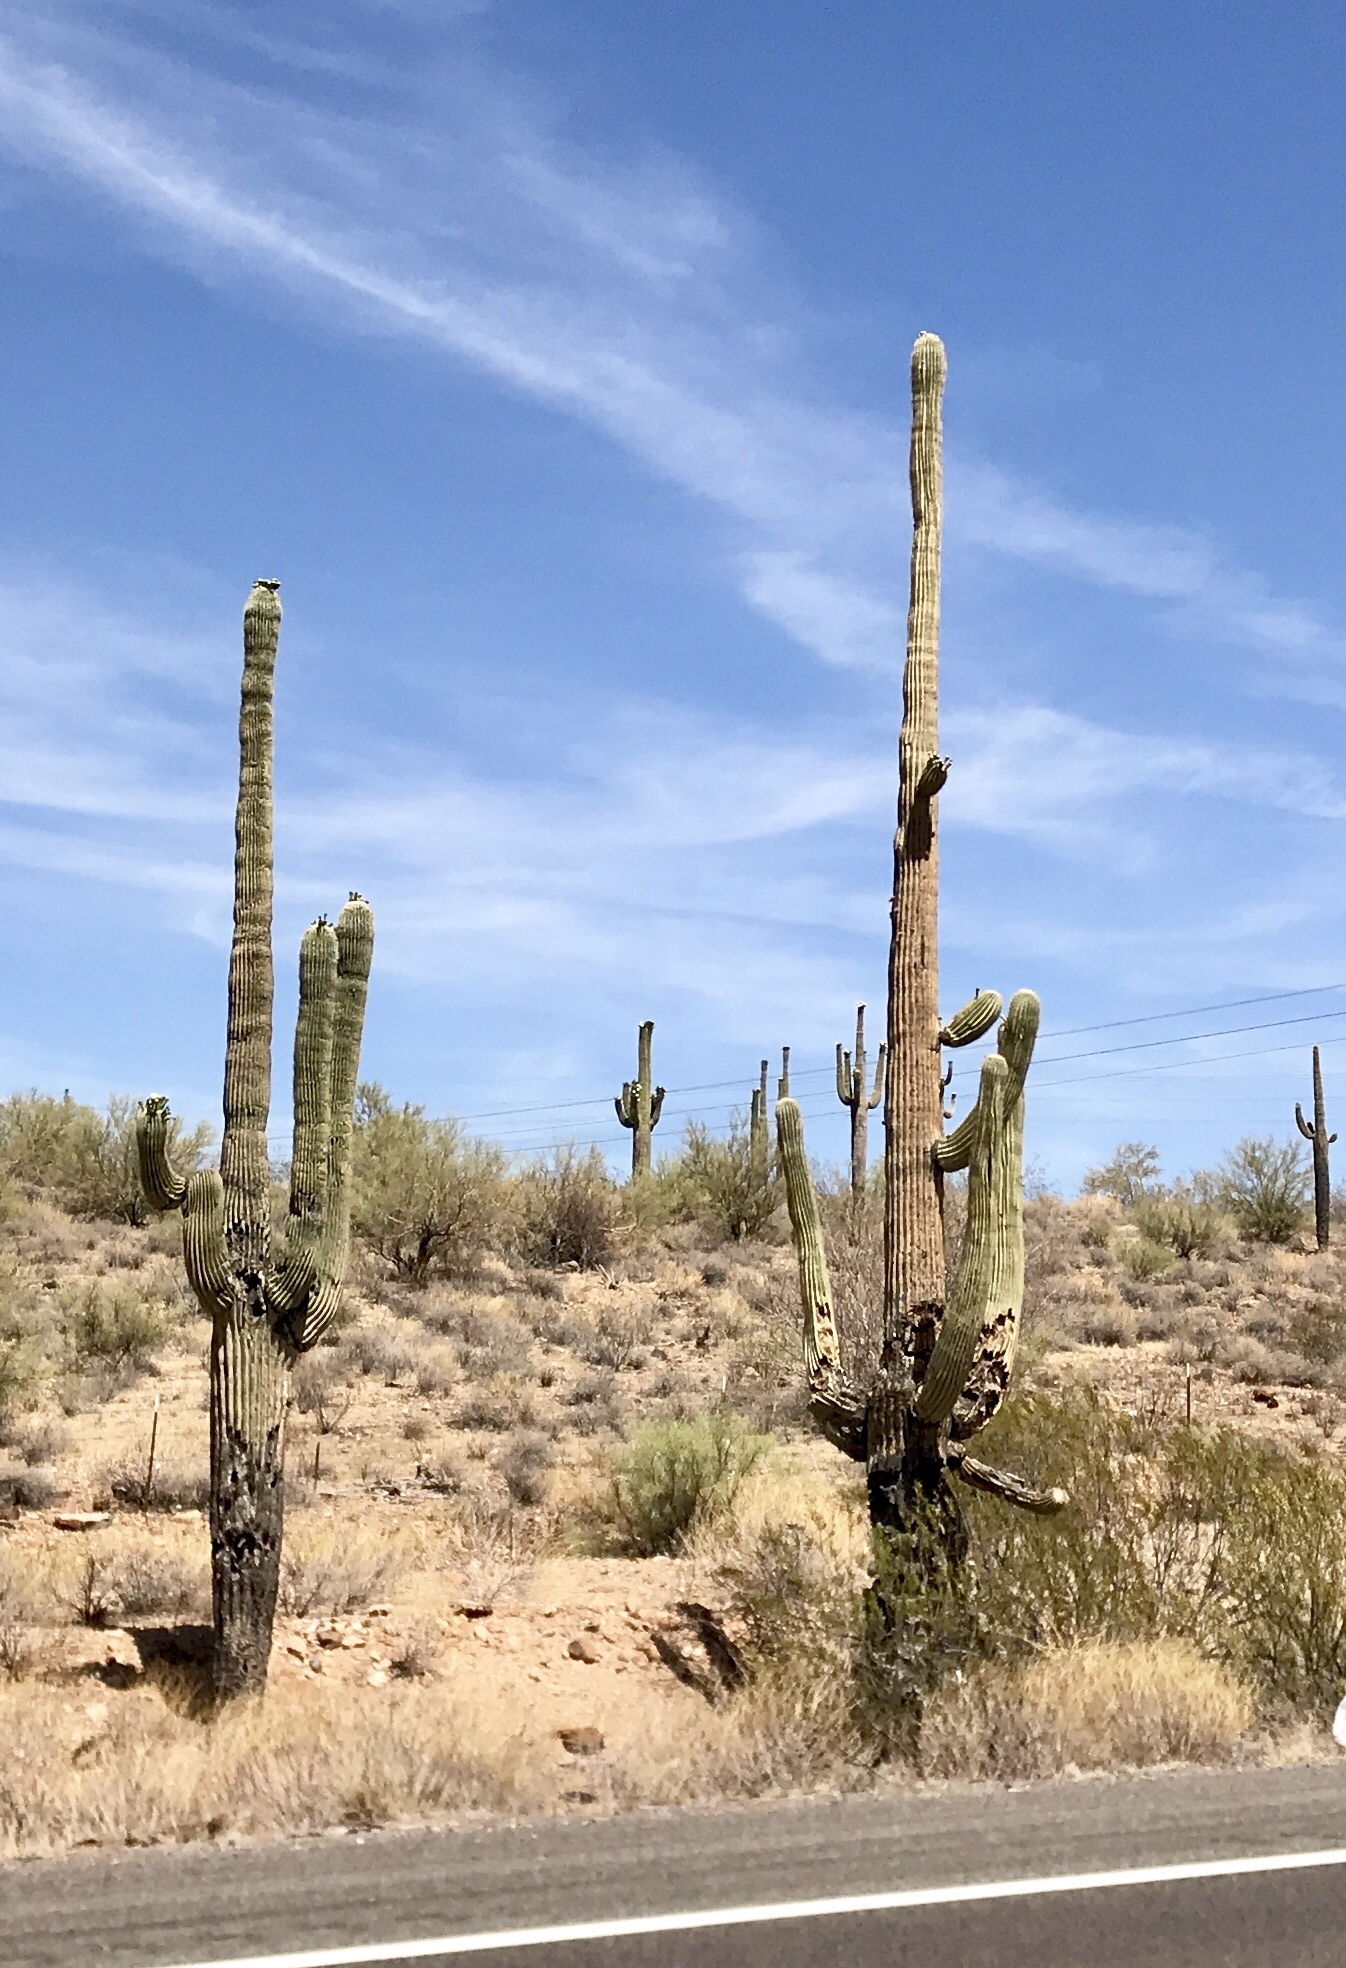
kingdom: Plantae
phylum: Tracheophyta
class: Magnoliopsida
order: Caryophyllales
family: Cactaceae
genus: Carnegiea
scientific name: Carnegiea gigantea
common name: Saguaro
